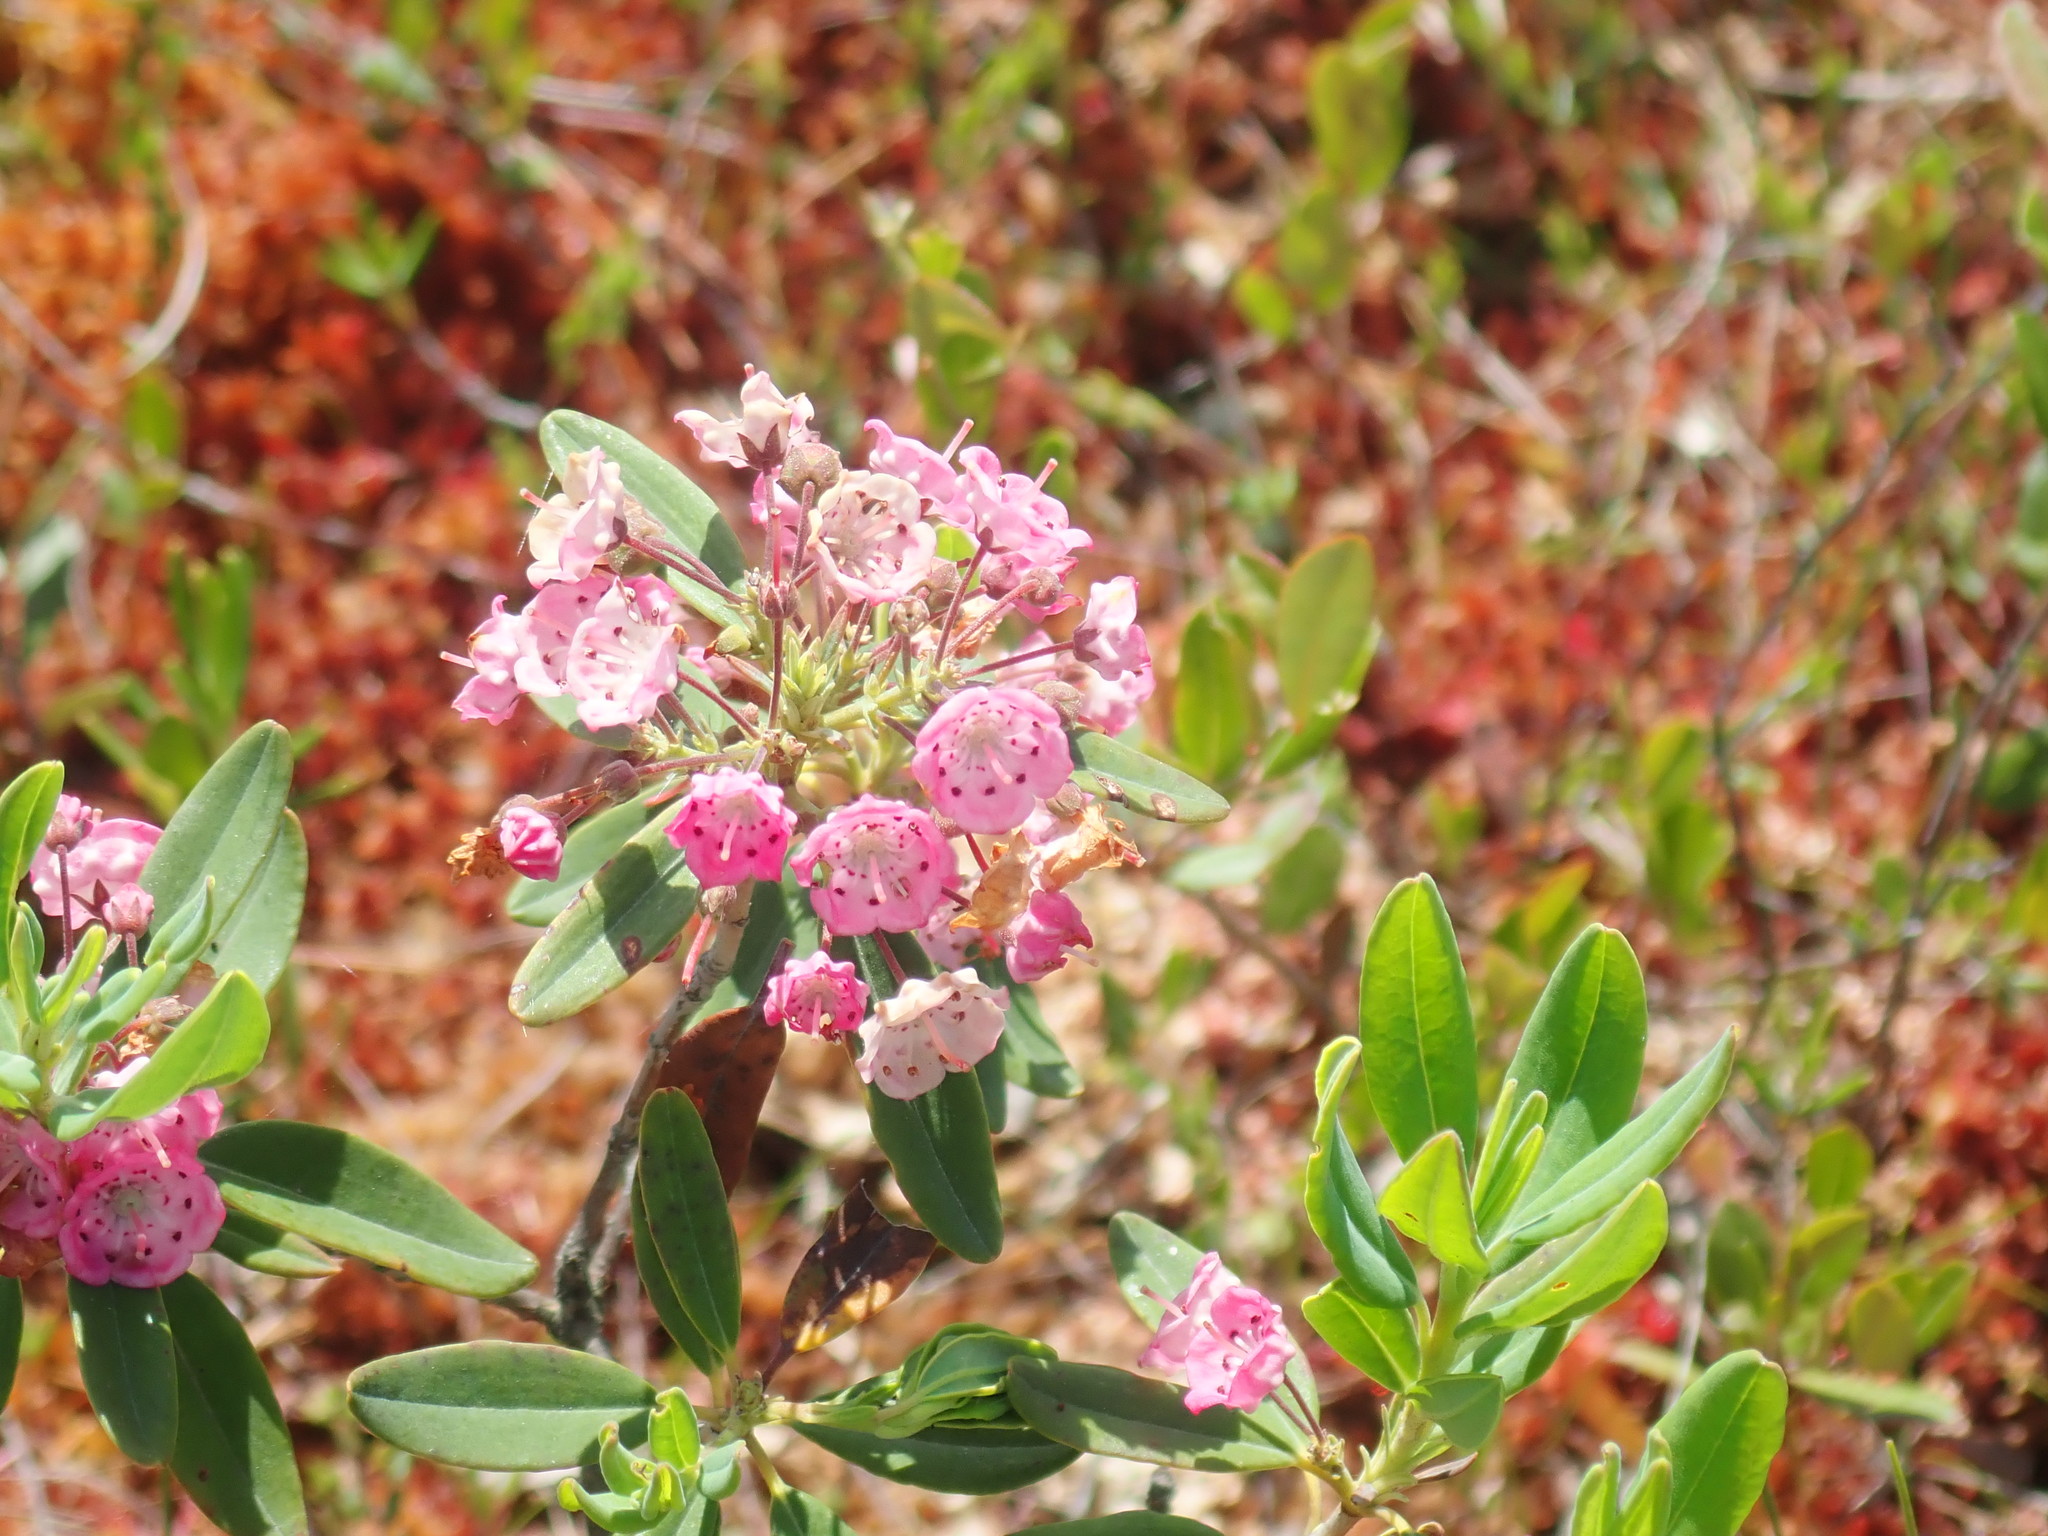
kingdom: Plantae
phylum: Tracheophyta
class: Magnoliopsida
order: Ericales
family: Ericaceae
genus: Kalmia
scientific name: Kalmia polifolia
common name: Bog-laurel
